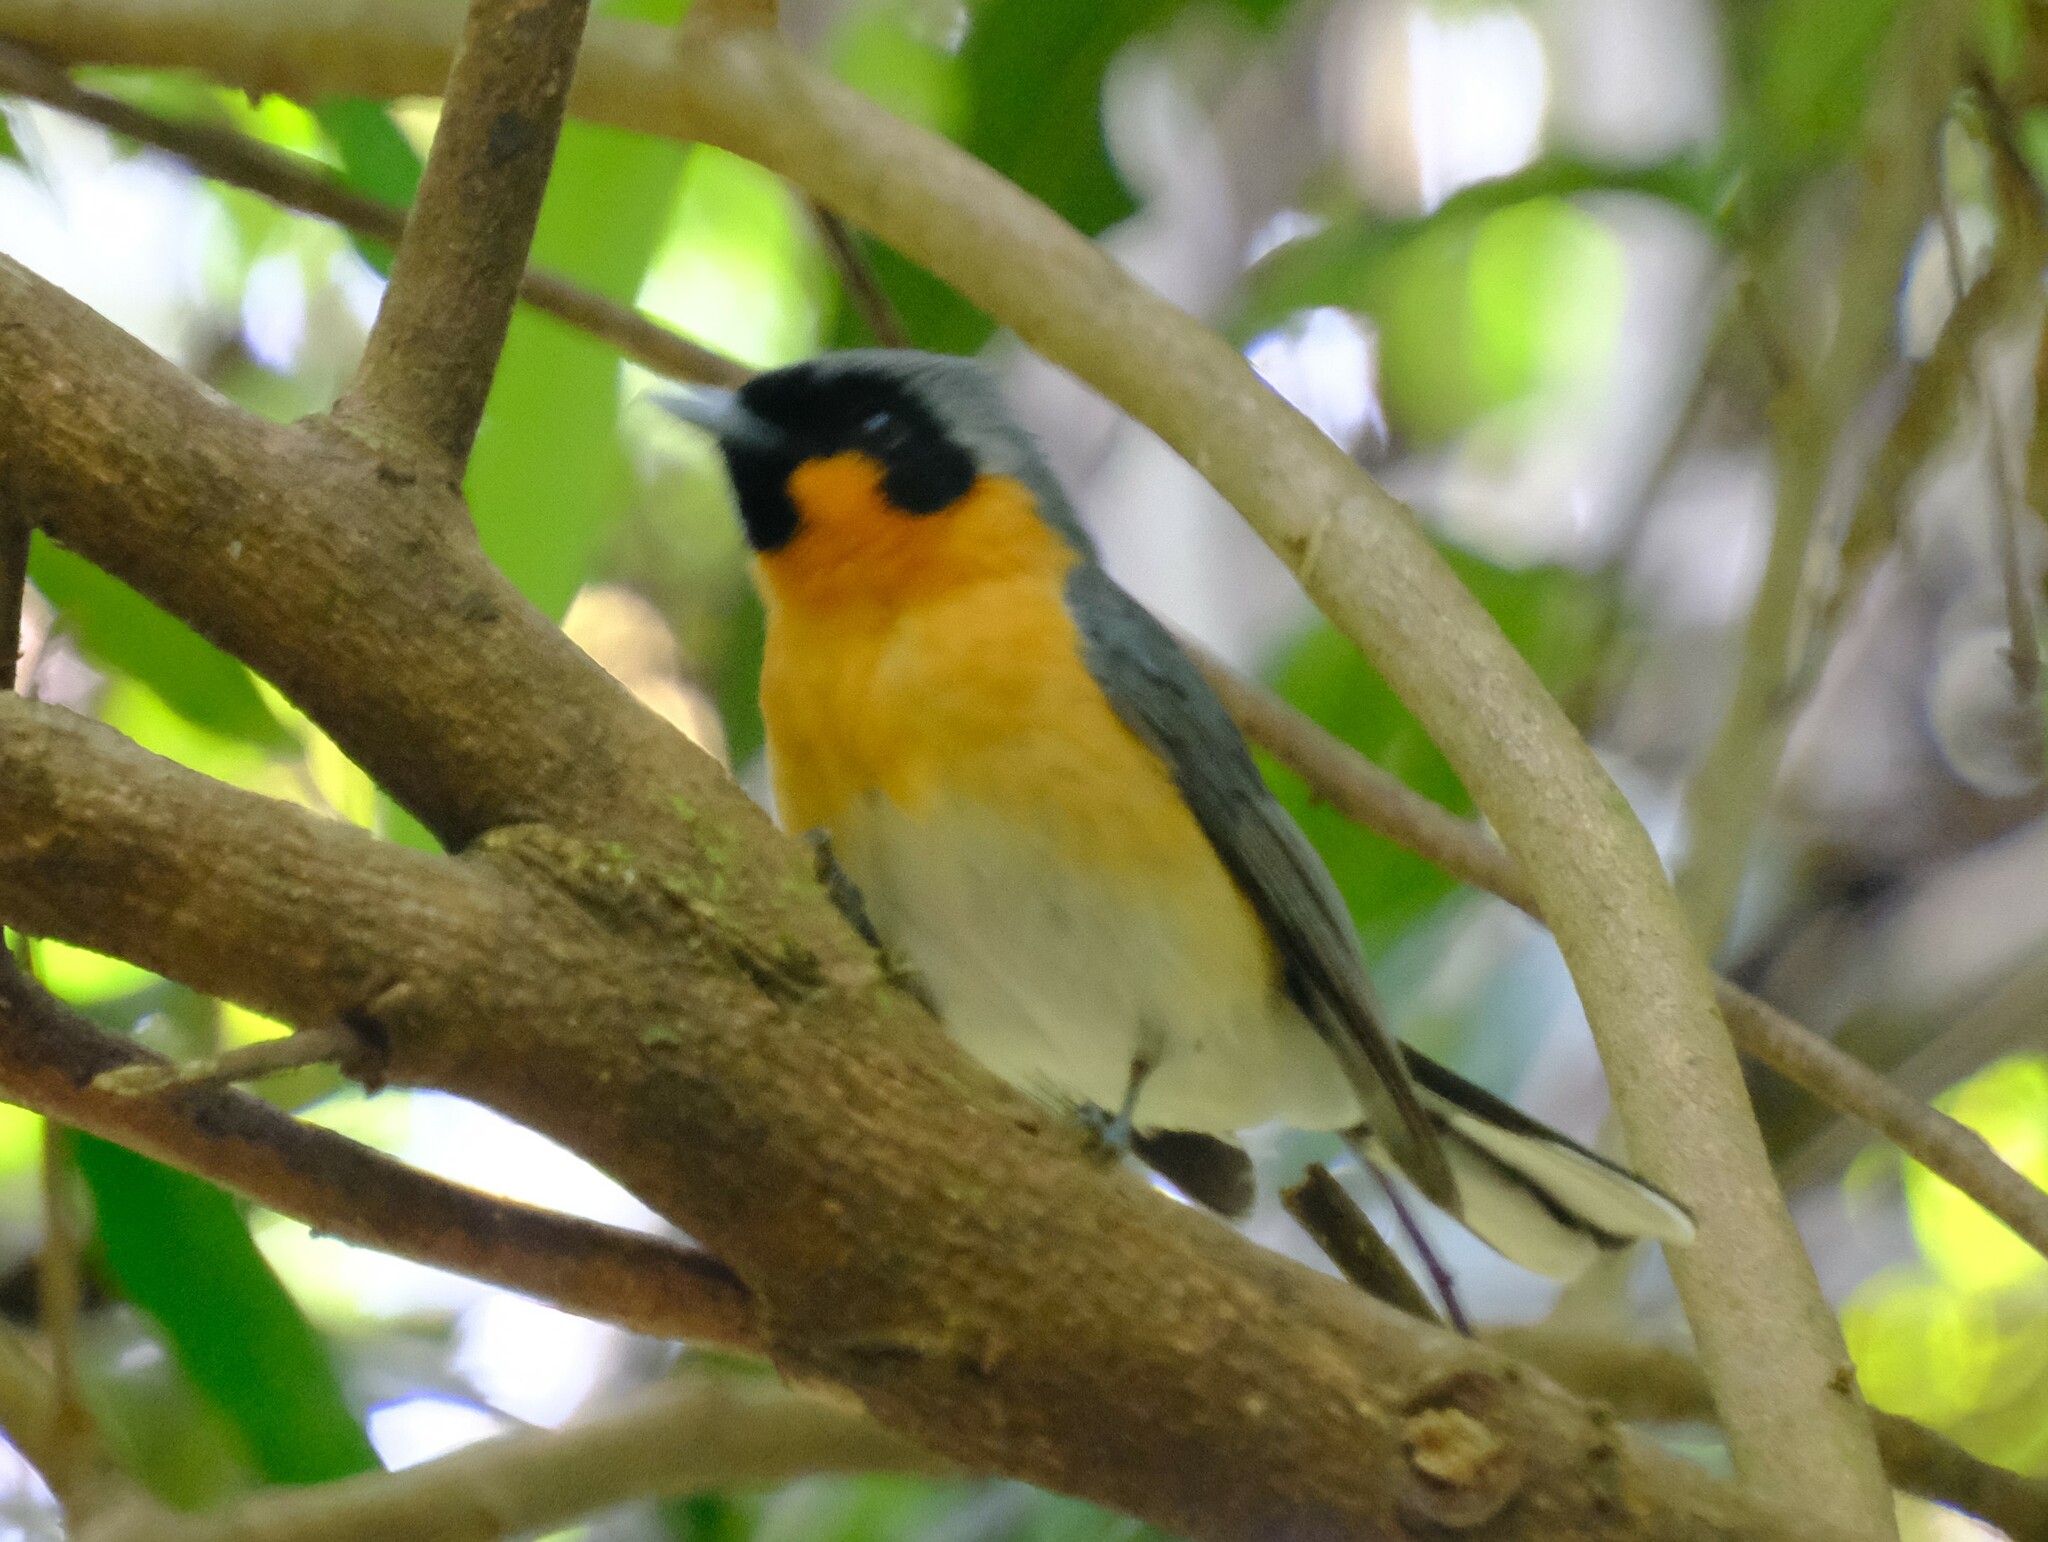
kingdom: Animalia
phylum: Chordata
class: Aves
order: Passeriformes
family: Monarchidae
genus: Symposiachrus
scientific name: Symposiachrus trivirgatus
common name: Spectacled monarch
